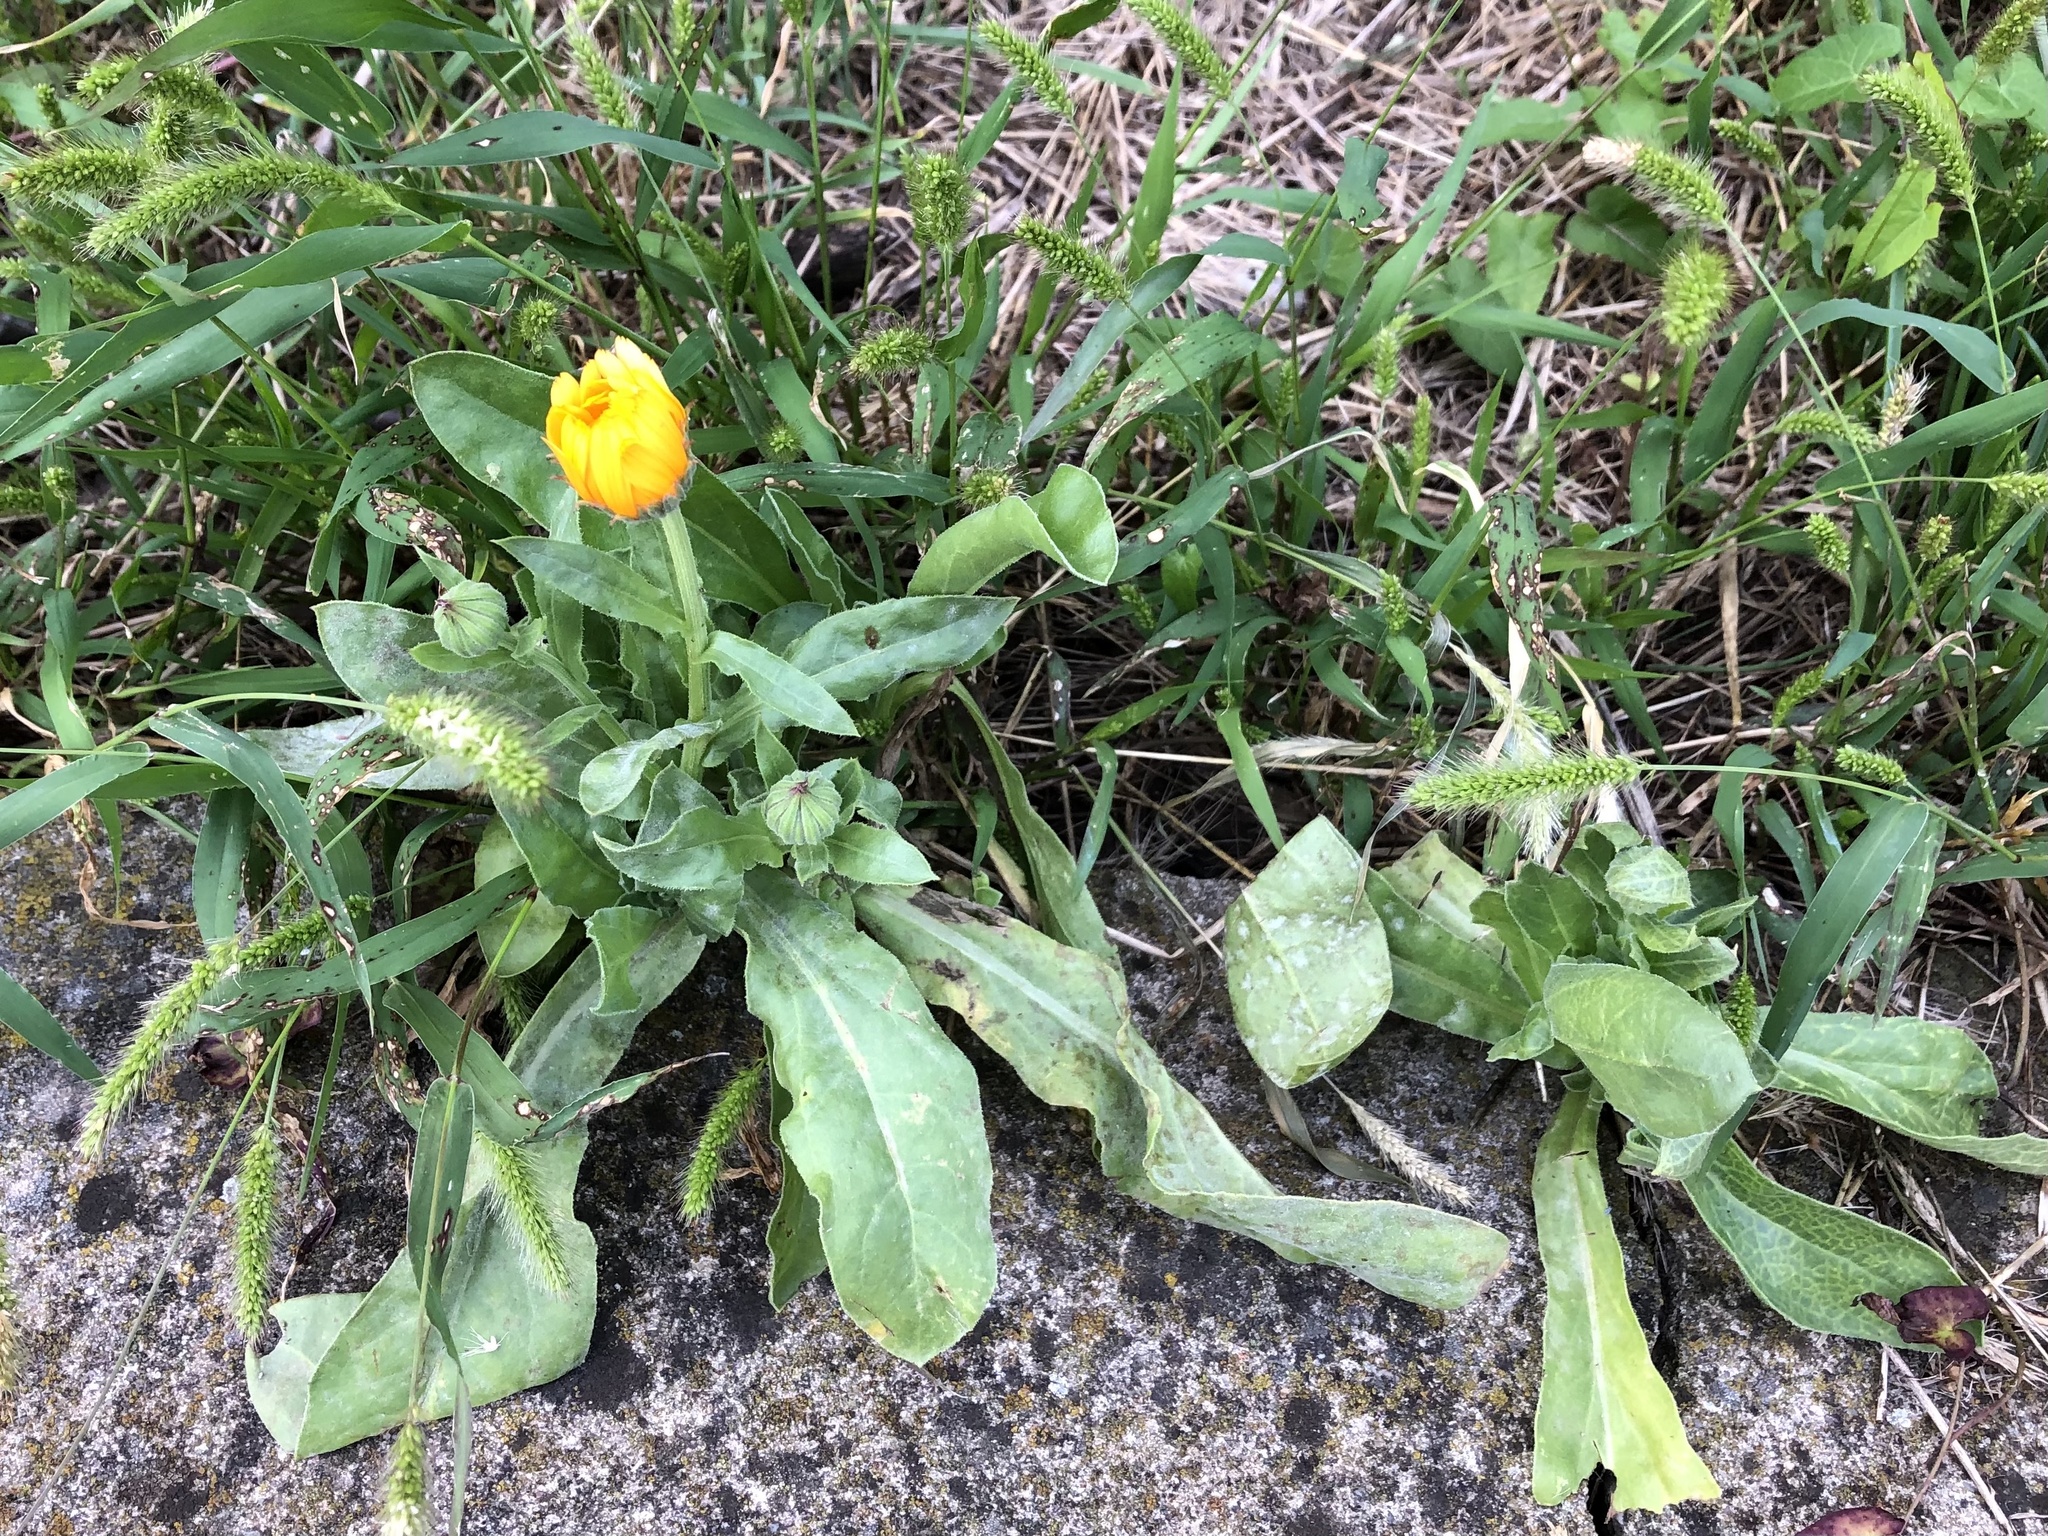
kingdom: Plantae
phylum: Tracheophyta
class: Magnoliopsida
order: Asterales
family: Asteraceae
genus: Calendula
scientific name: Calendula officinalis
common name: Pot marigold
